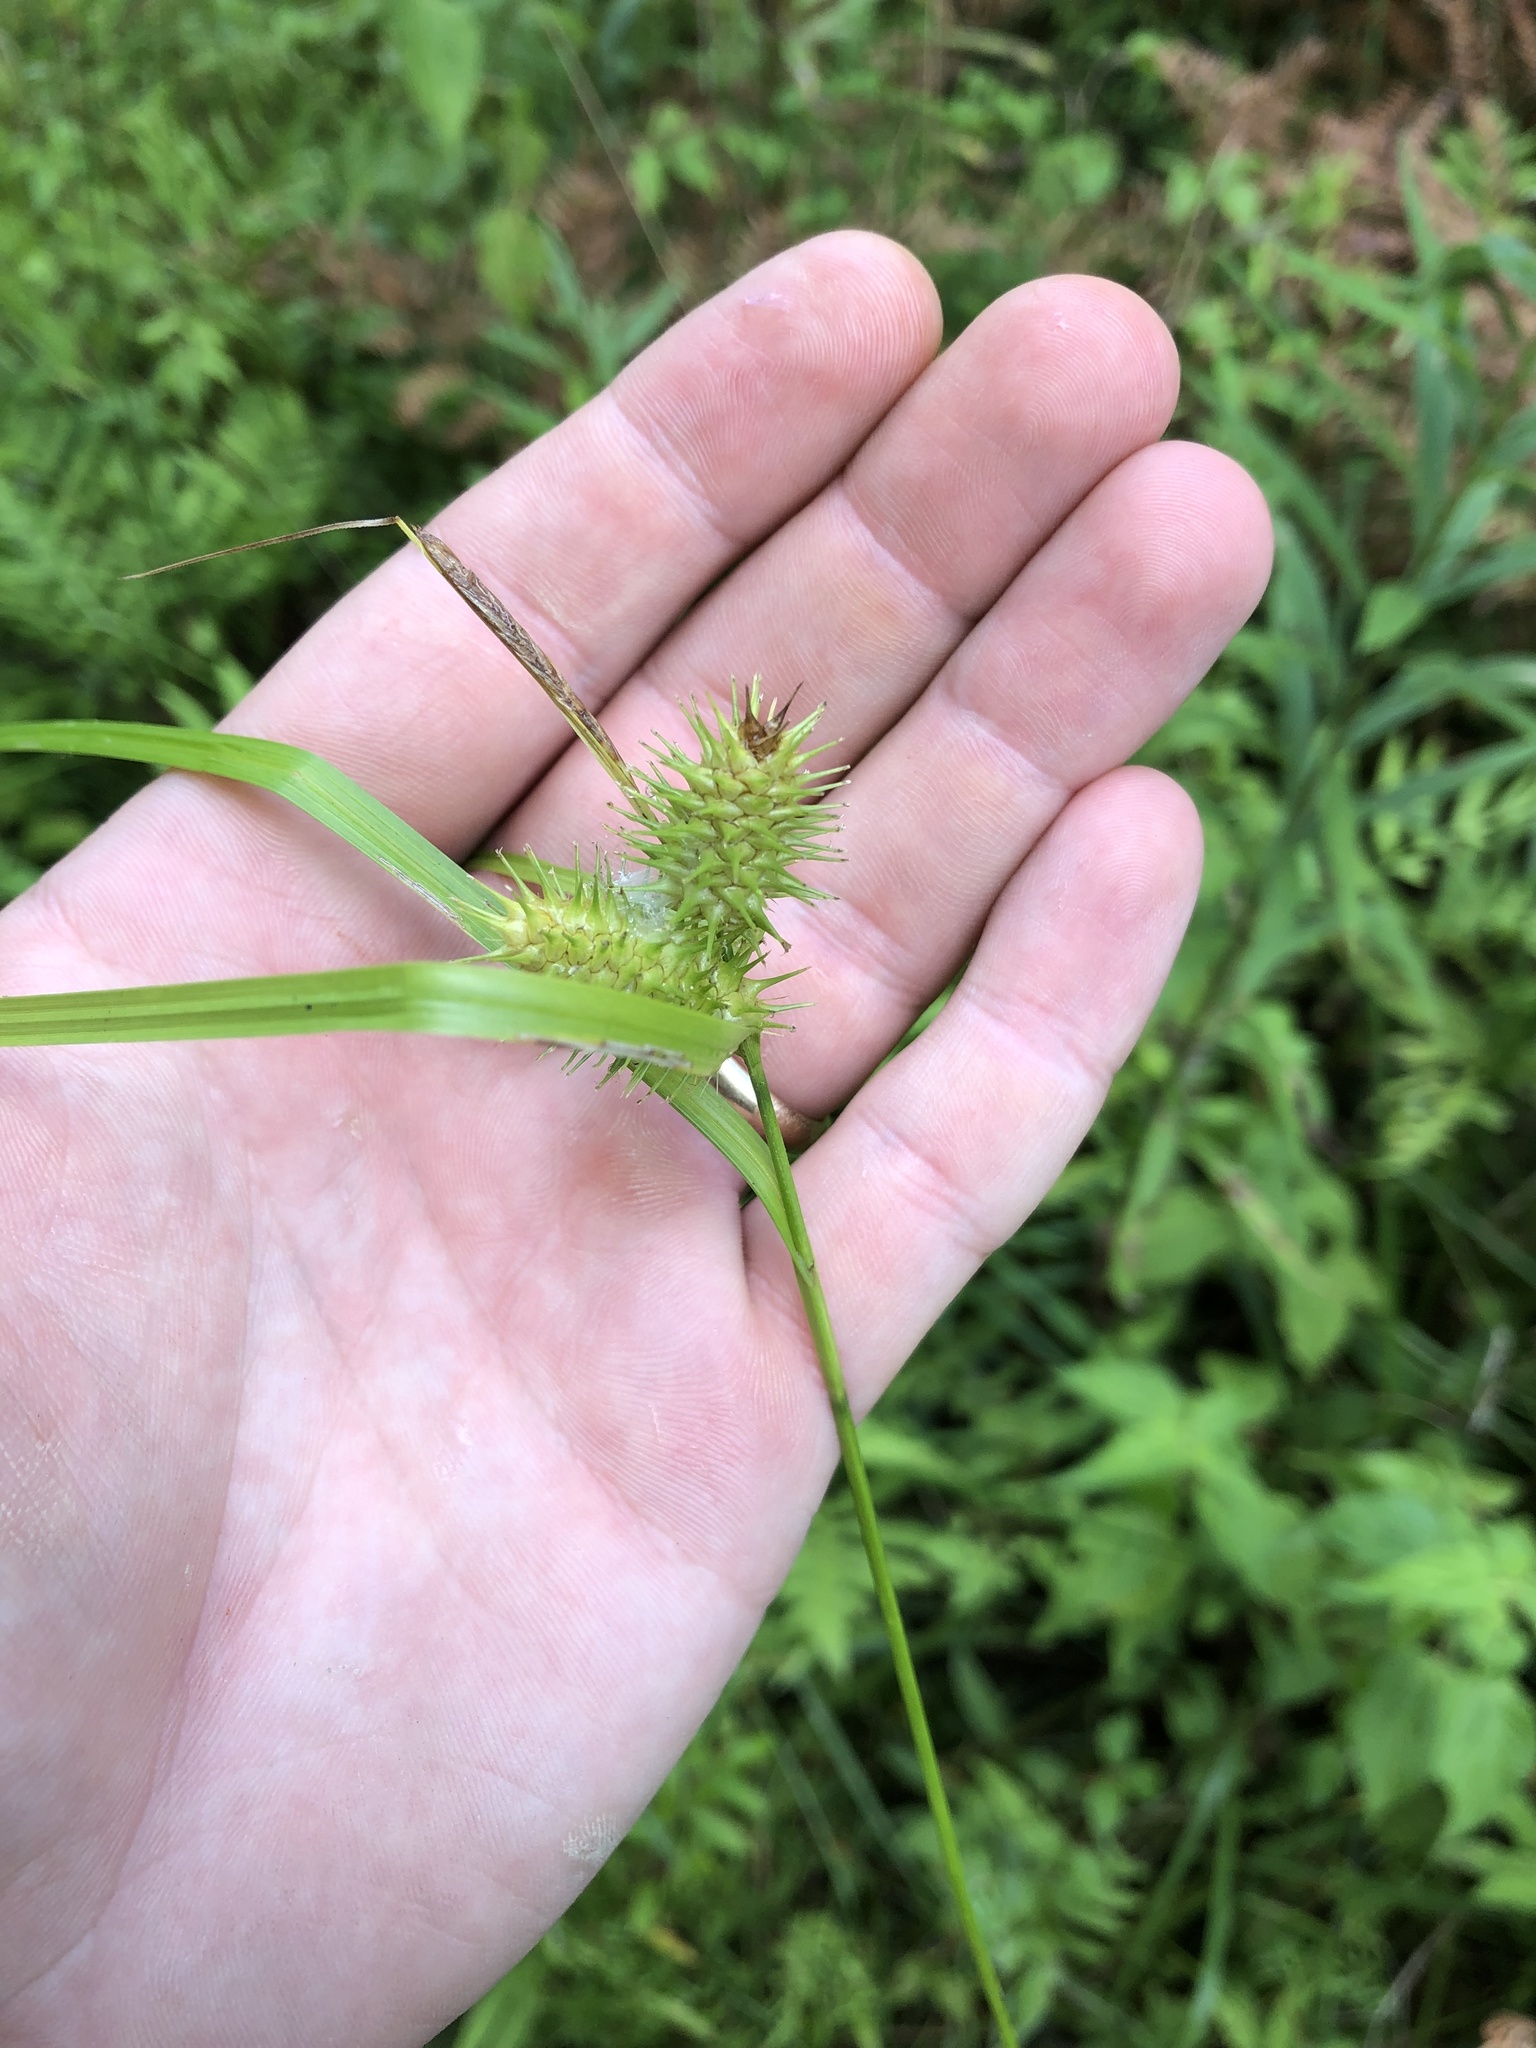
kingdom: Plantae
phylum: Tracheophyta
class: Liliopsida
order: Poales
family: Cyperaceae
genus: Carex
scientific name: Carex lurida
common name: Sallow sedge
